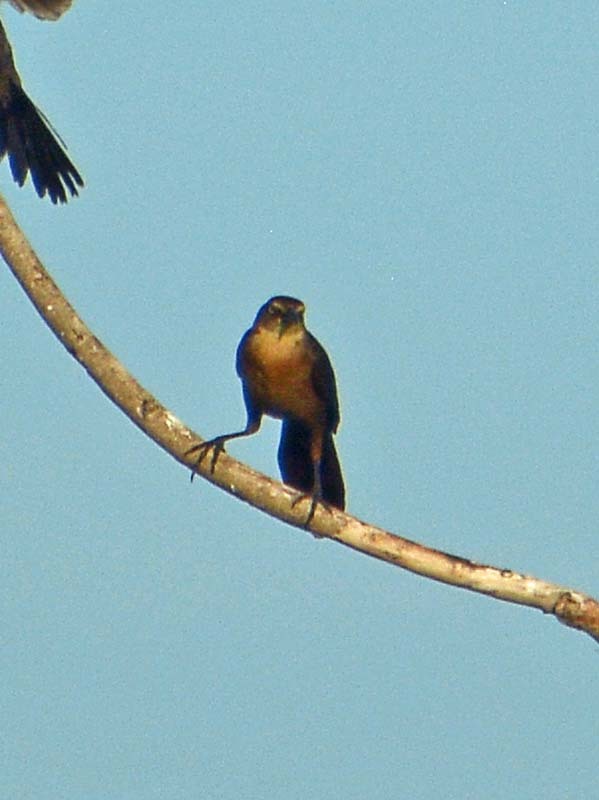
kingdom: Animalia
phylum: Chordata
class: Aves
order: Passeriformes
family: Icteridae
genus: Quiscalus
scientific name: Quiscalus mexicanus
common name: Great-tailed grackle
